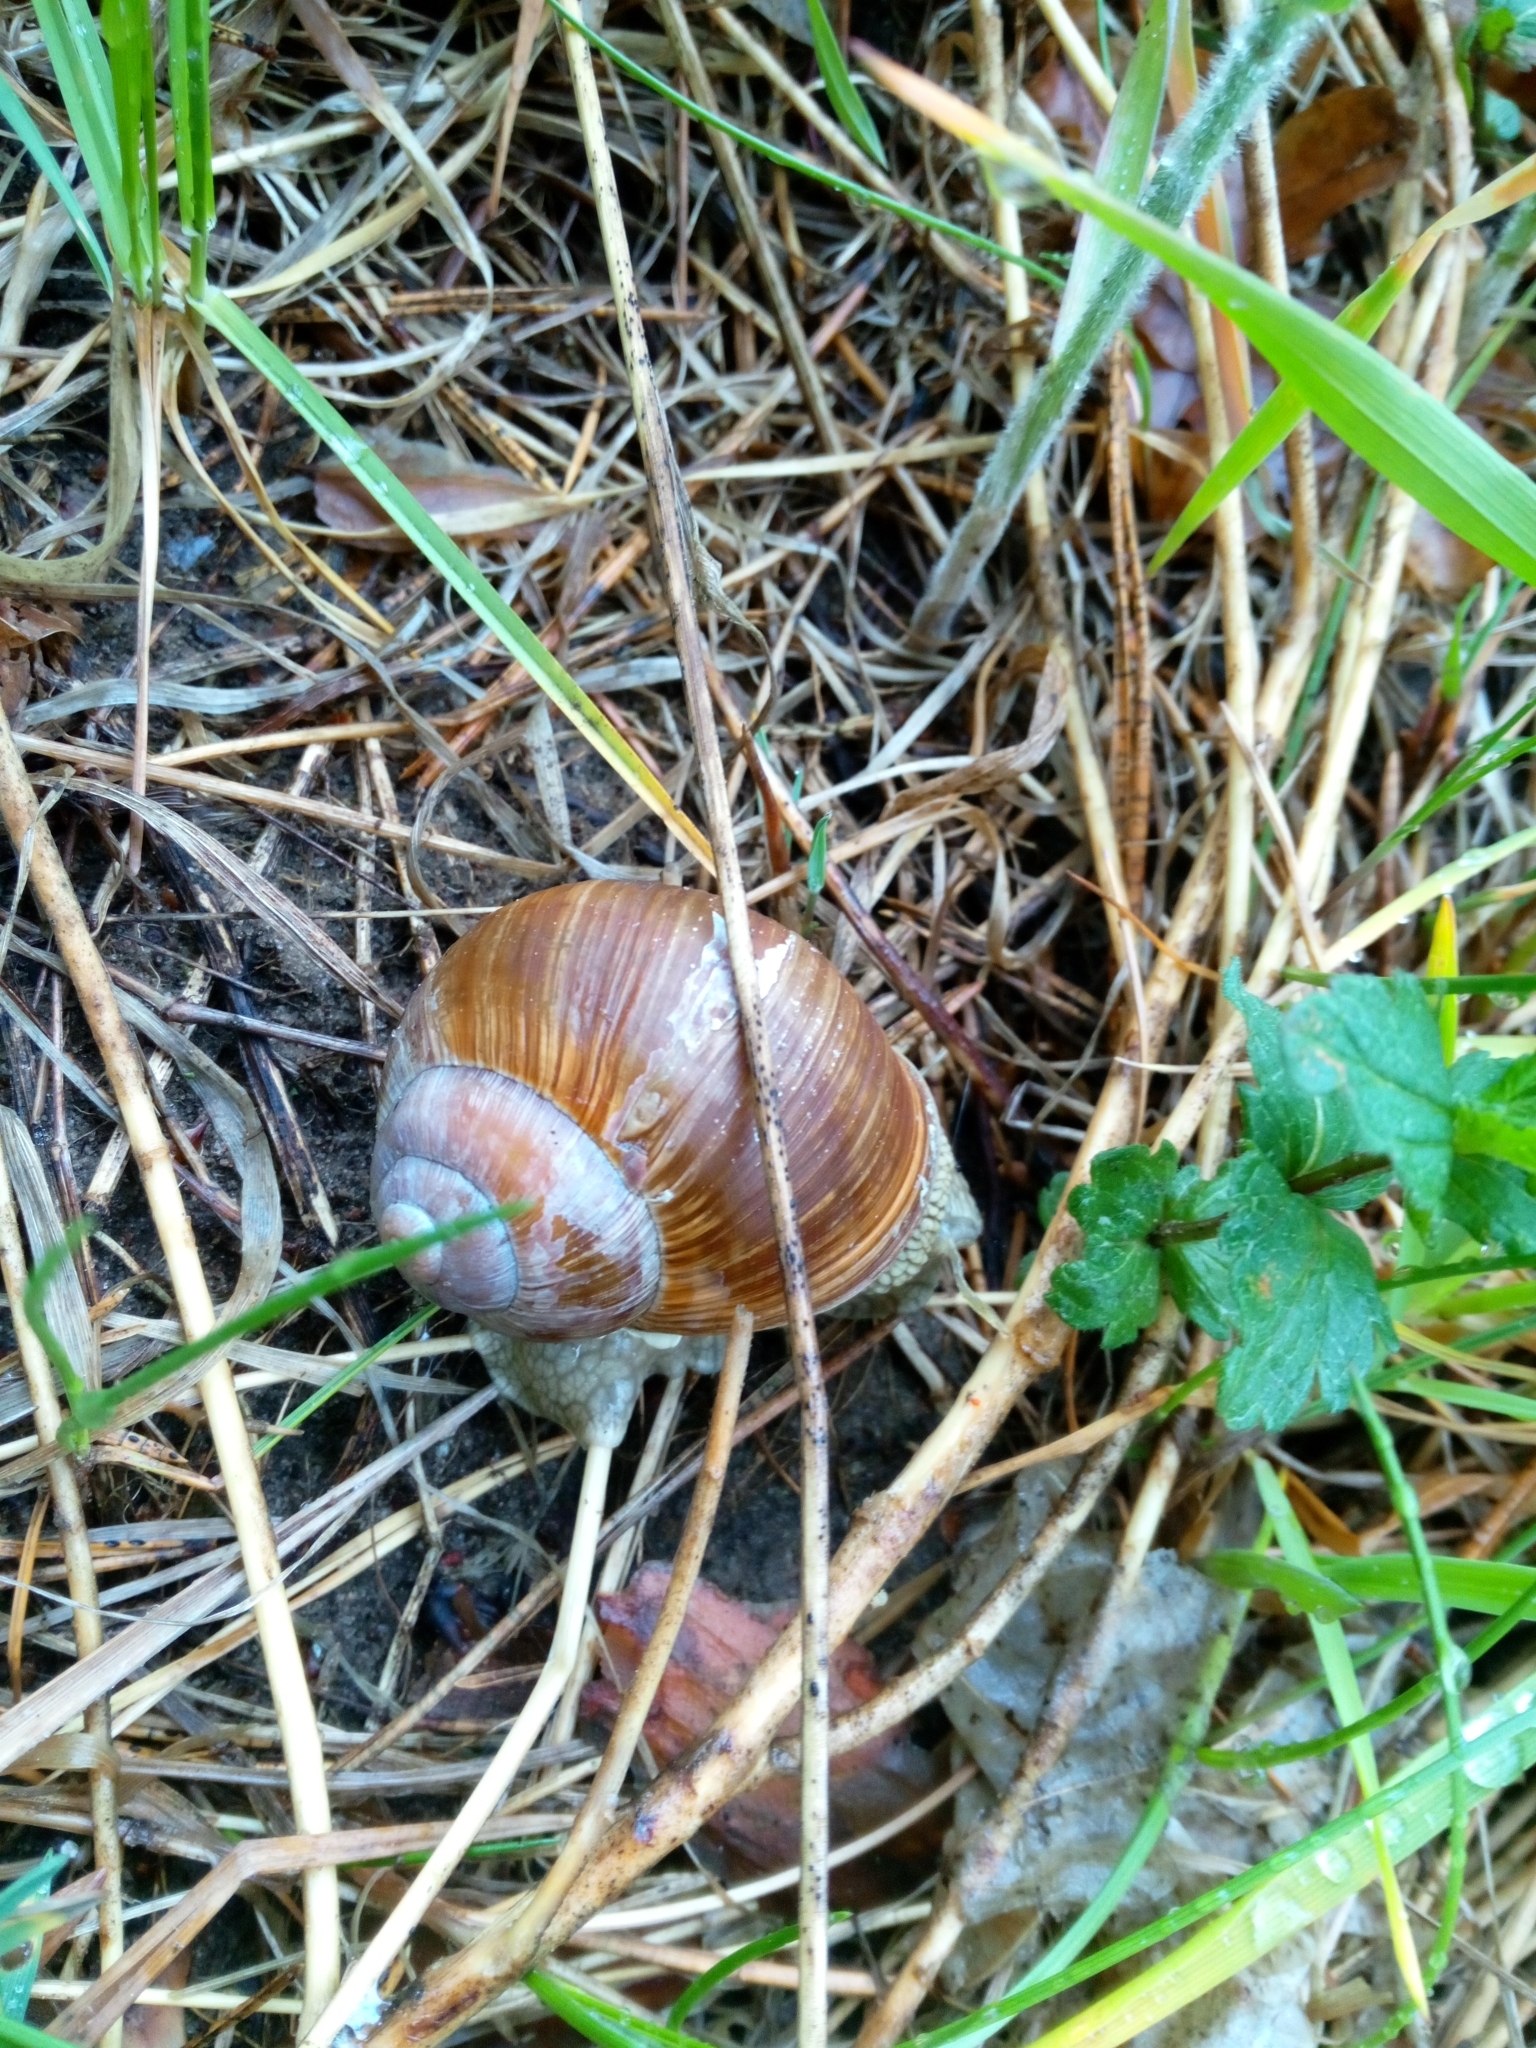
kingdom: Animalia
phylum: Mollusca
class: Gastropoda
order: Stylommatophora
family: Helicidae
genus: Helix
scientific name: Helix pomatia
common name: Roman snail
